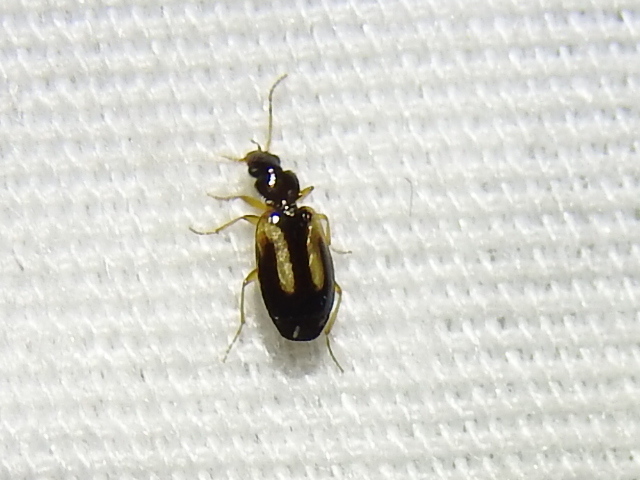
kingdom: Animalia
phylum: Arthropoda
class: Insecta
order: Coleoptera
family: Carabidae
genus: Axinopalpus
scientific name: Axinopalpus biplagiatus
